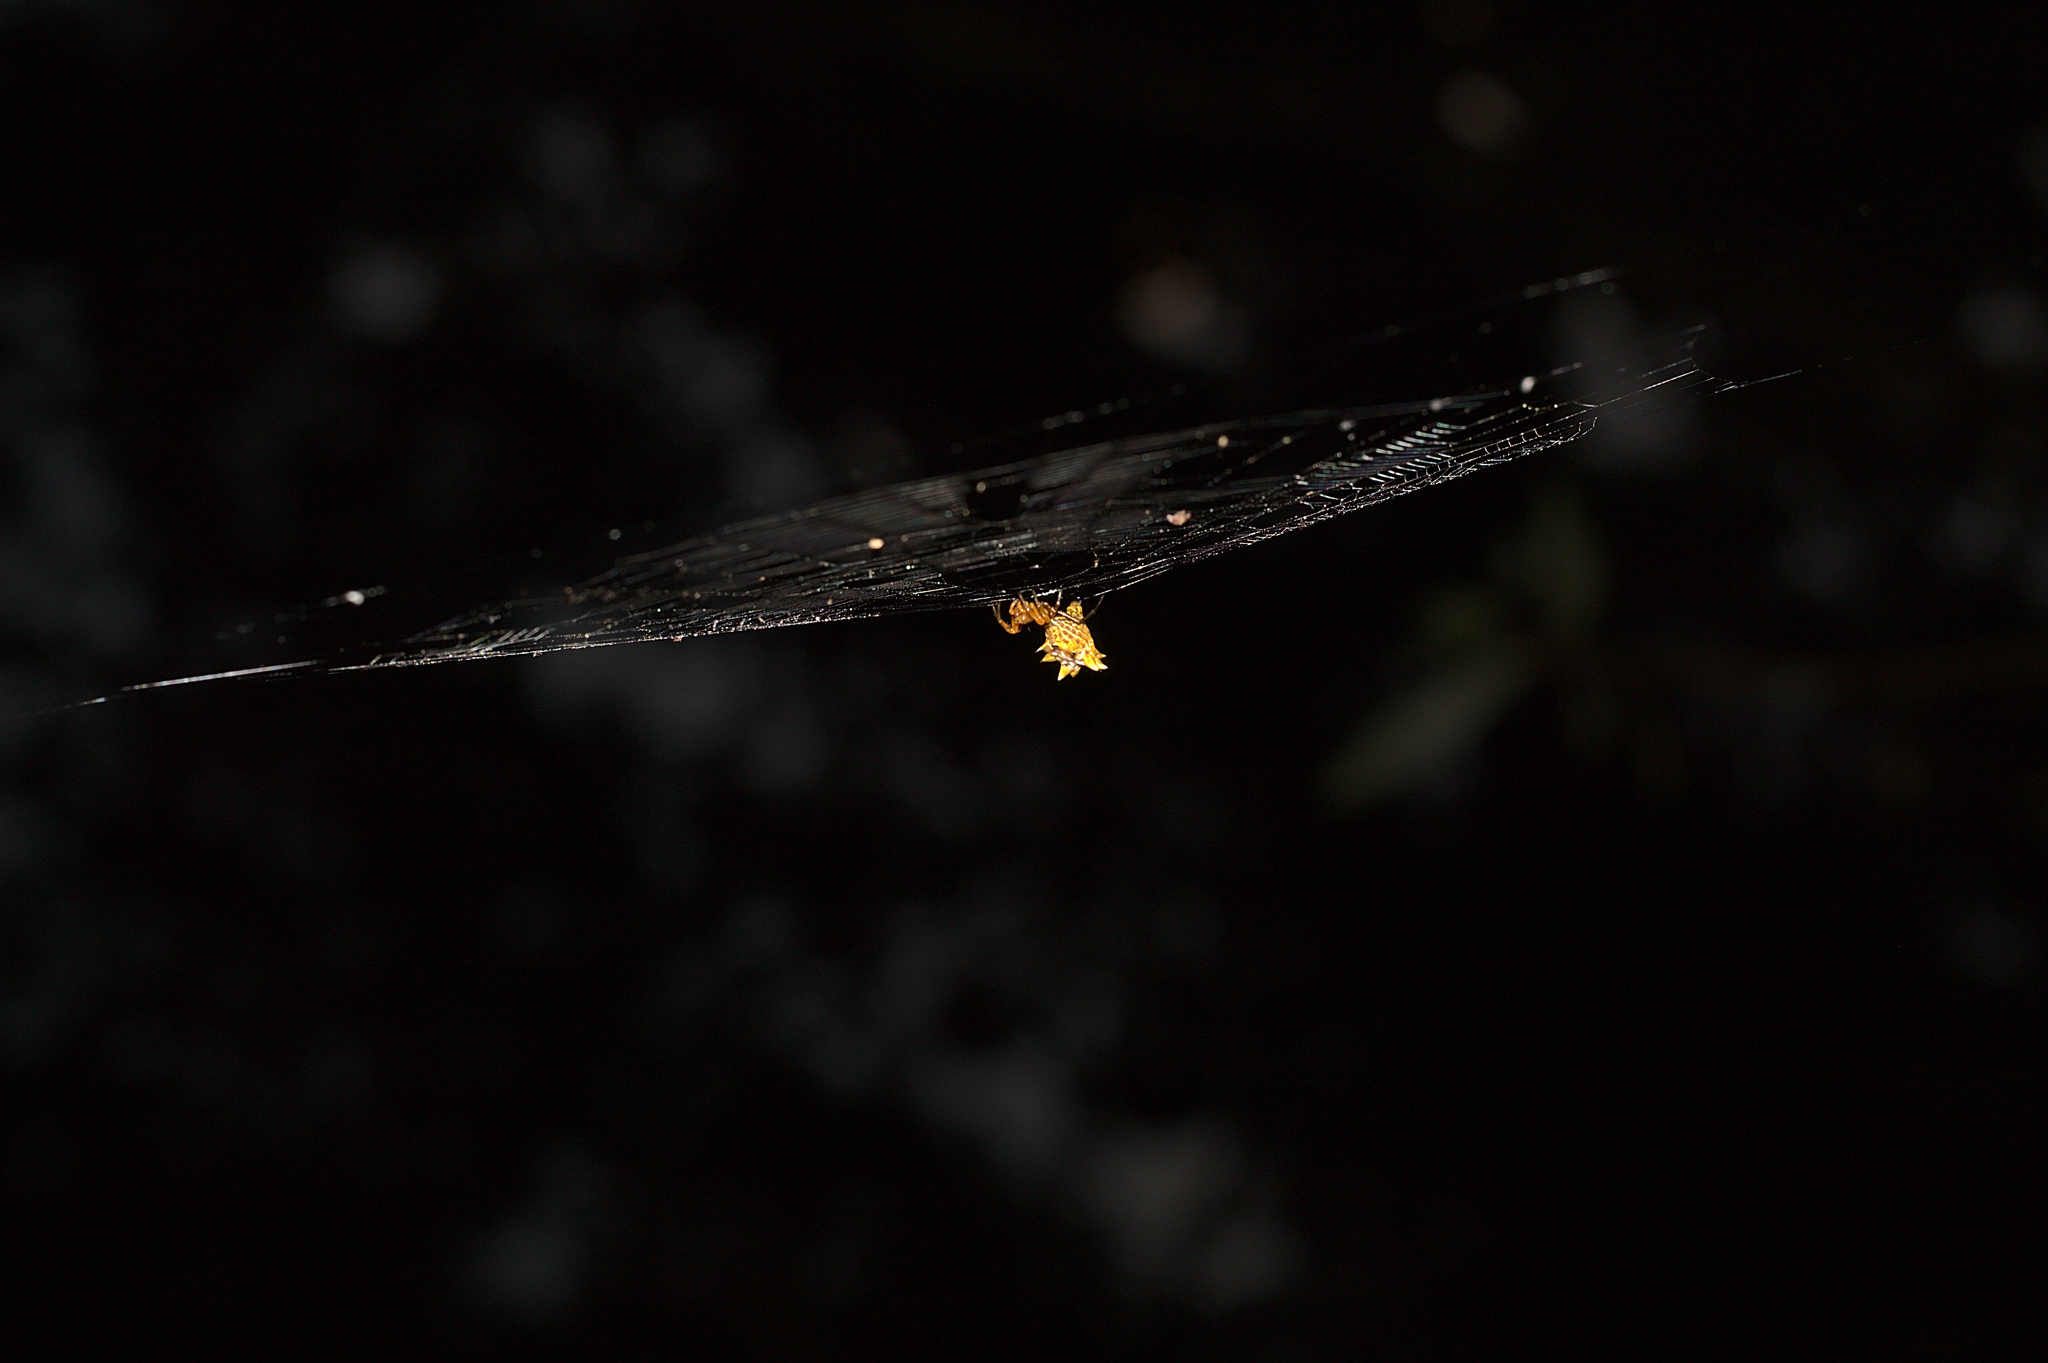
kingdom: Animalia
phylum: Arthropoda
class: Arachnida
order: Araneae
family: Araneidae
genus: Micrathena
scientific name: Micrathena gracilis
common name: Orb weavers
